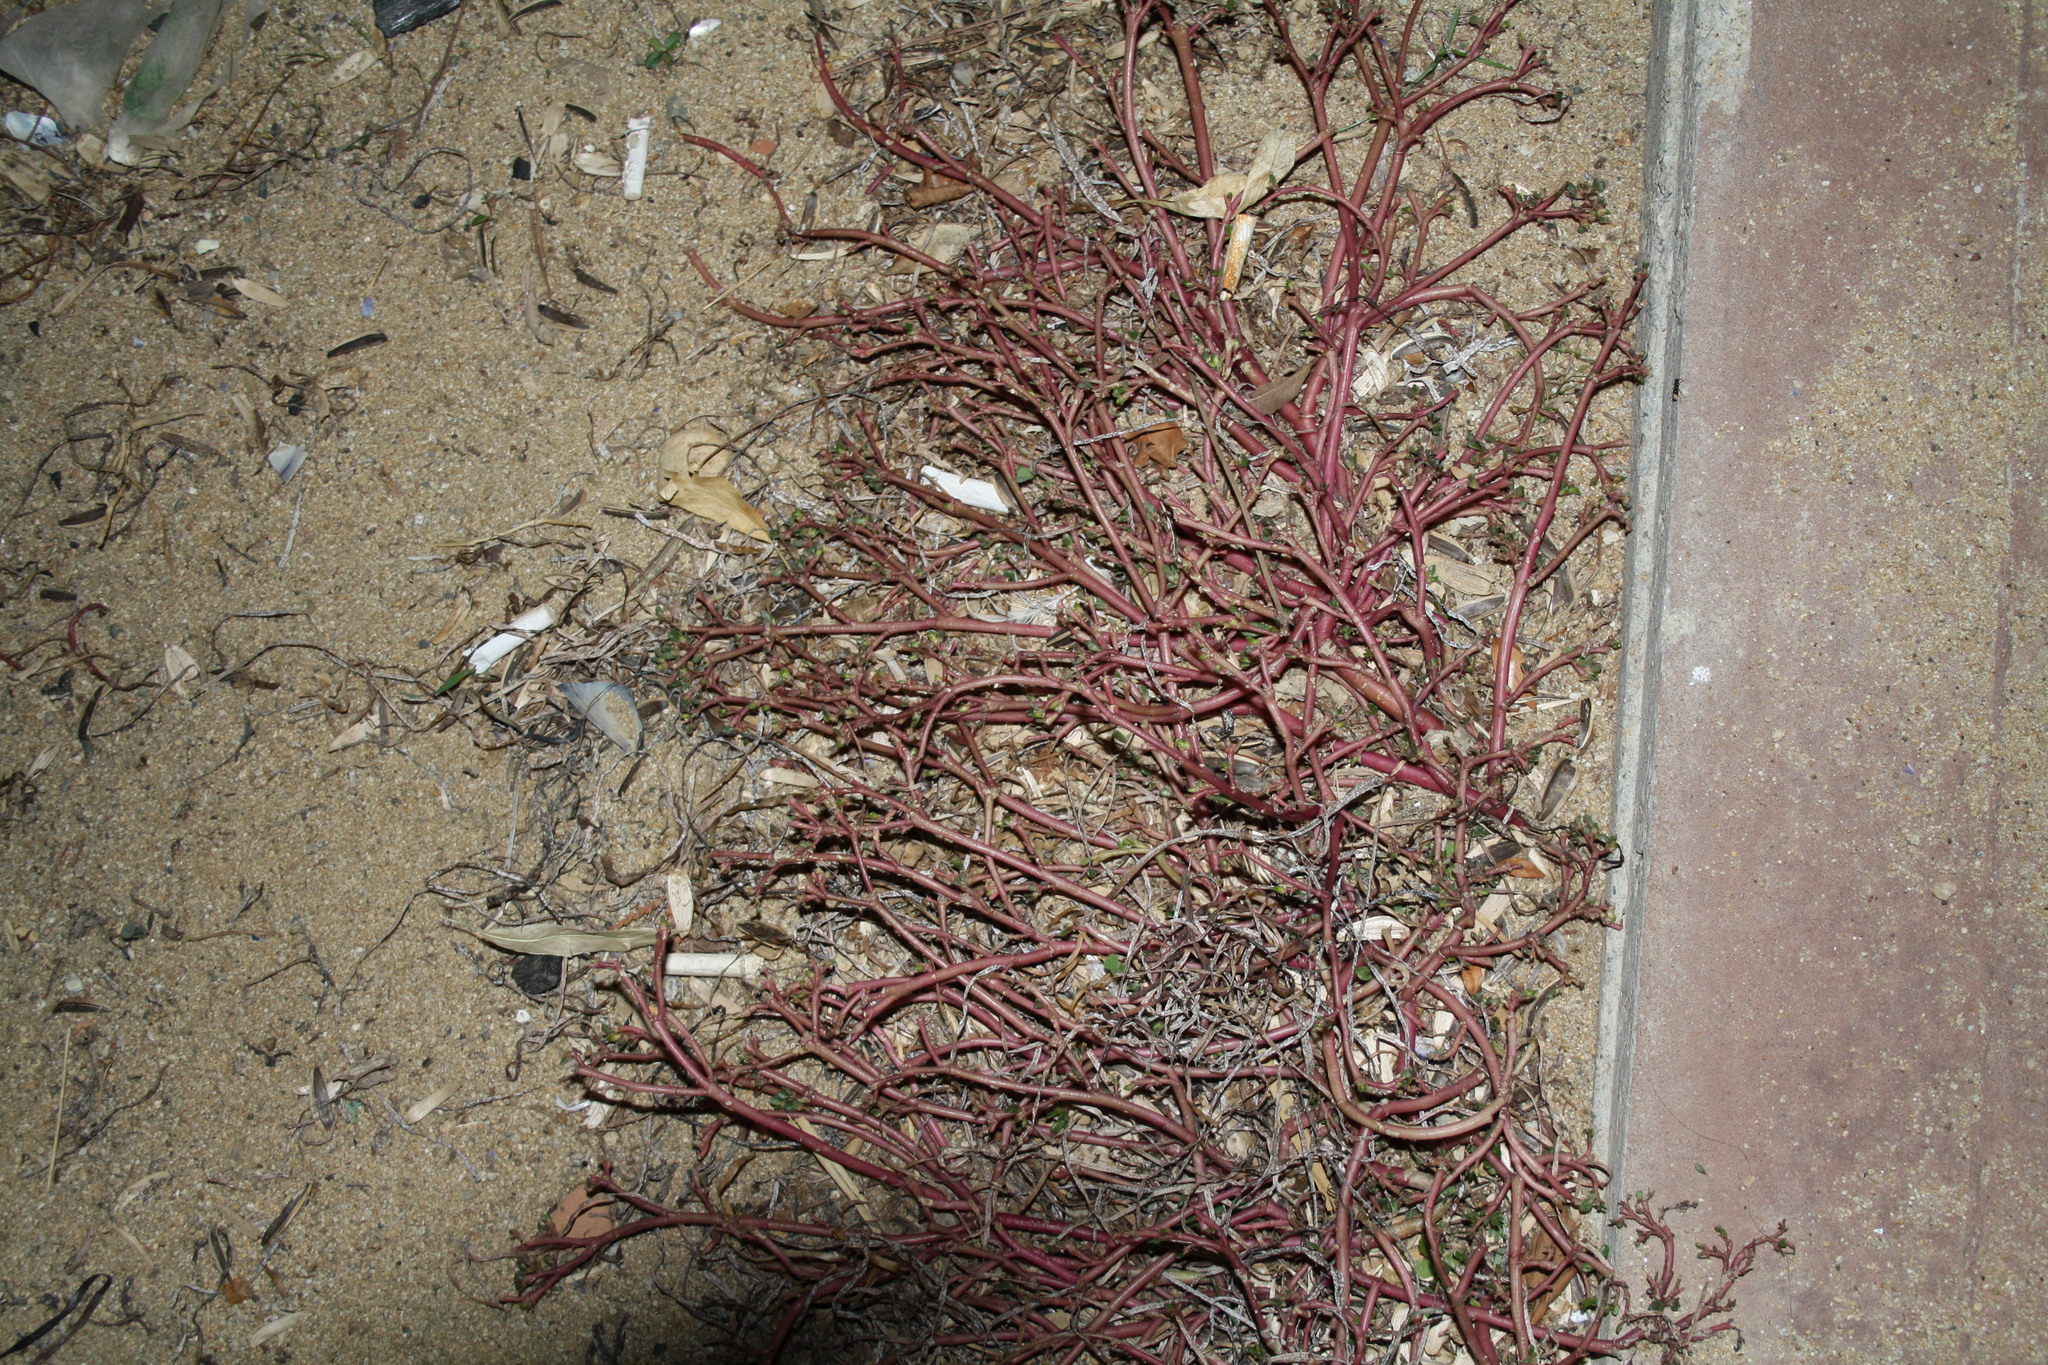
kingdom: Plantae
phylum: Tracheophyta
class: Magnoliopsida
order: Caryophyllales
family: Portulacaceae
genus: Portulaca
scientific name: Portulaca oleracea
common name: Common purslane
